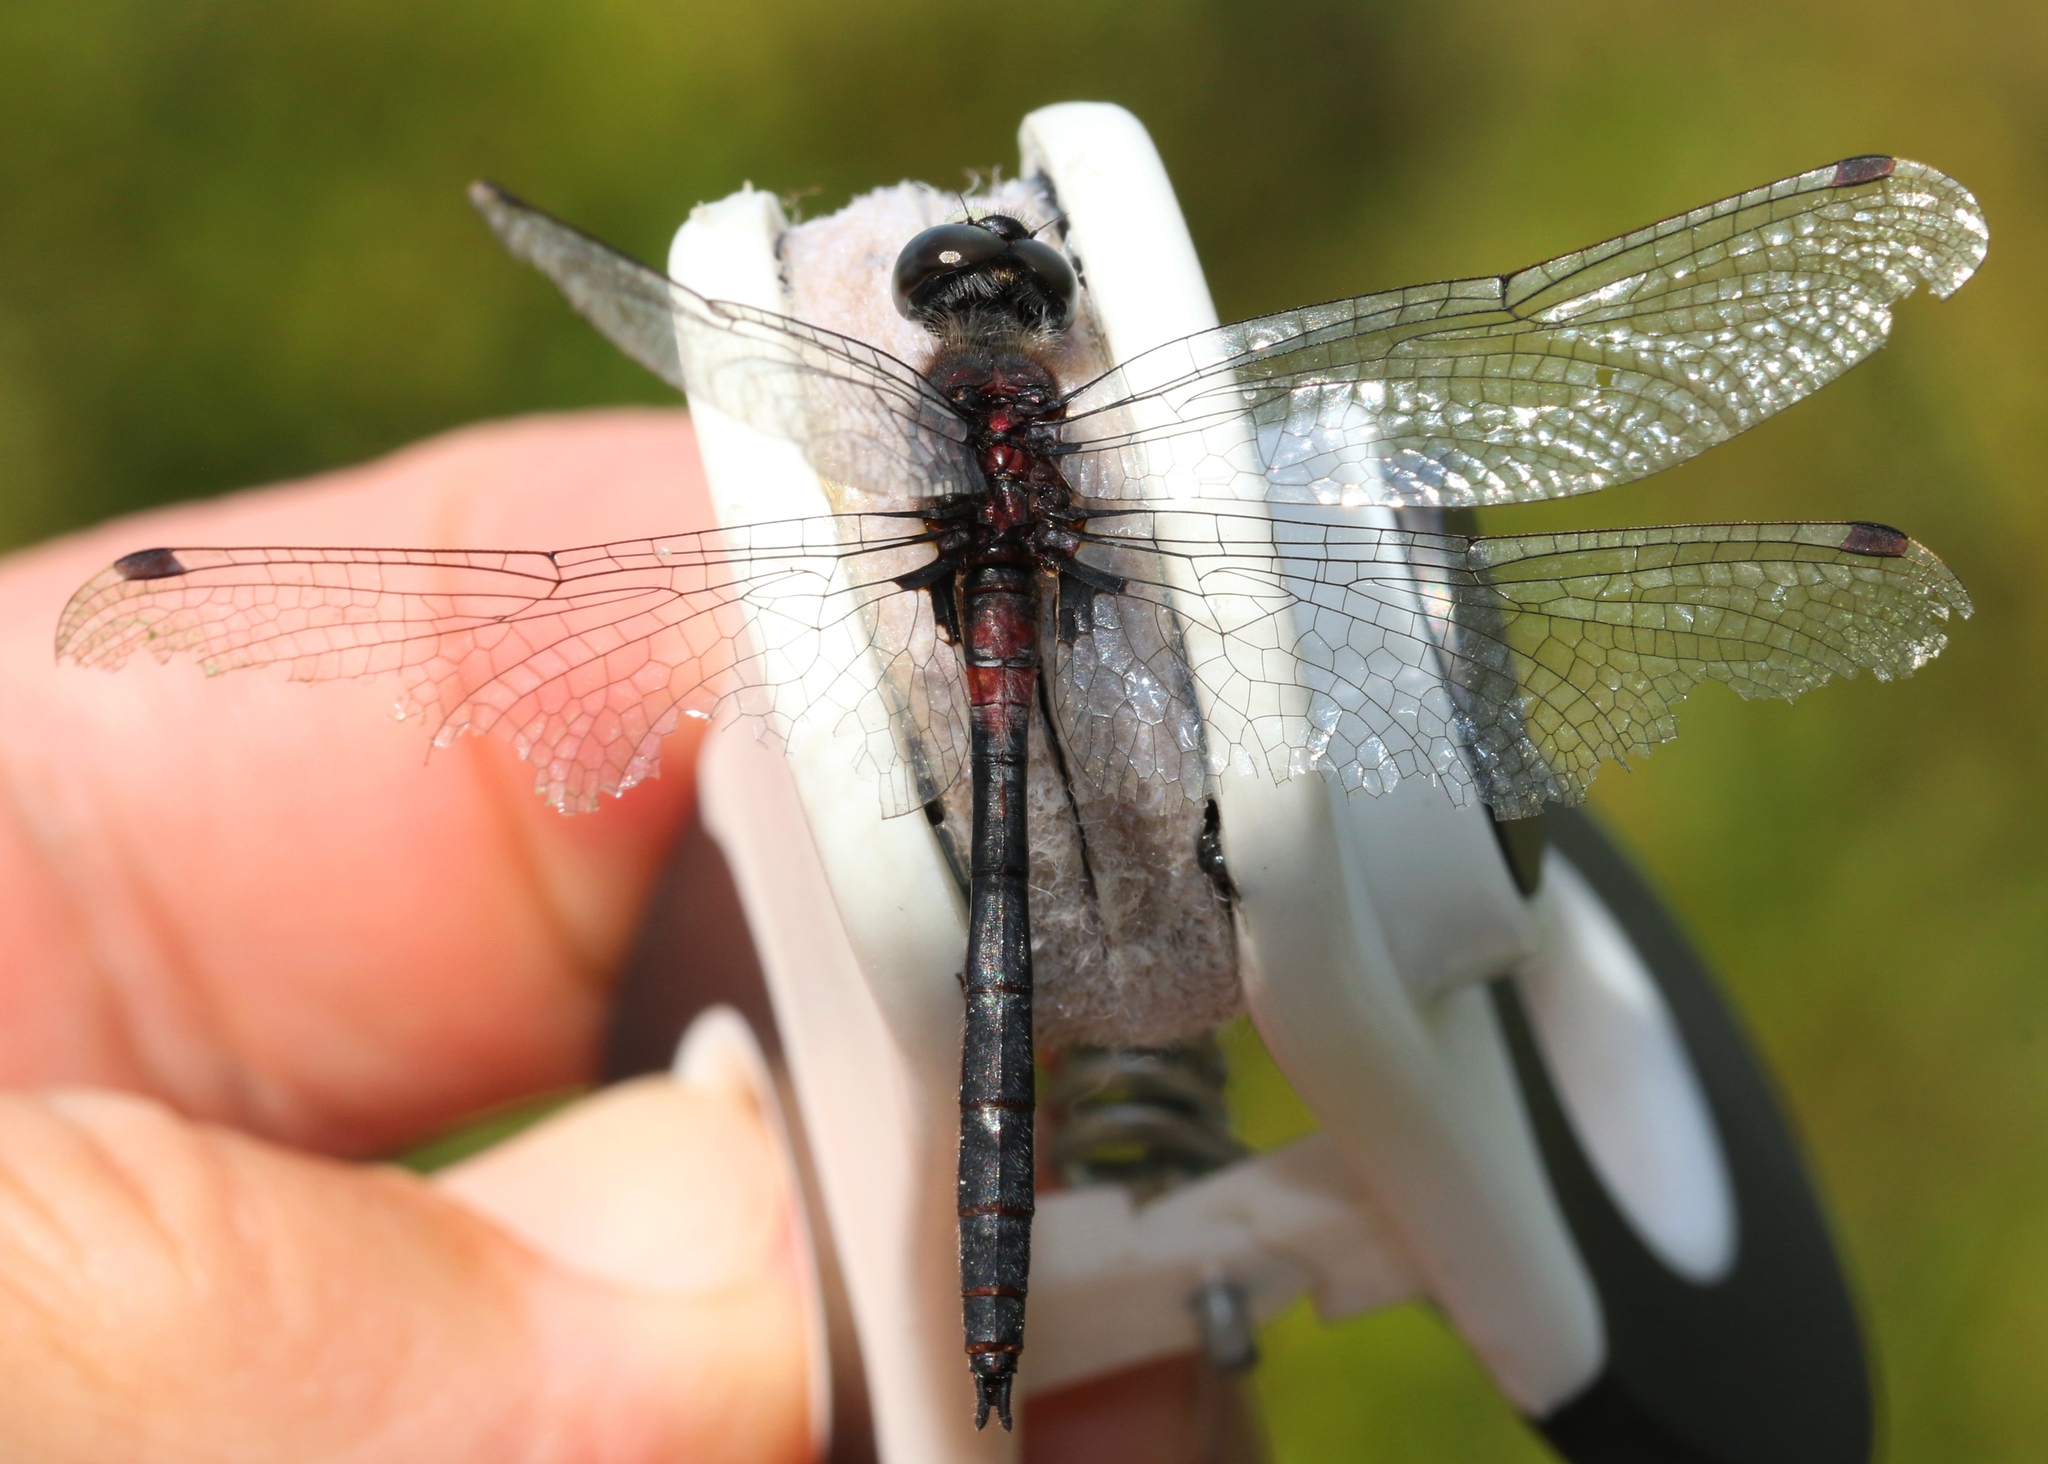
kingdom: Animalia
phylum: Arthropoda
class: Insecta
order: Odonata
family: Libellulidae
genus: Leucorrhinia
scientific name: Leucorrhinia proxima
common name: Belted whiteface
